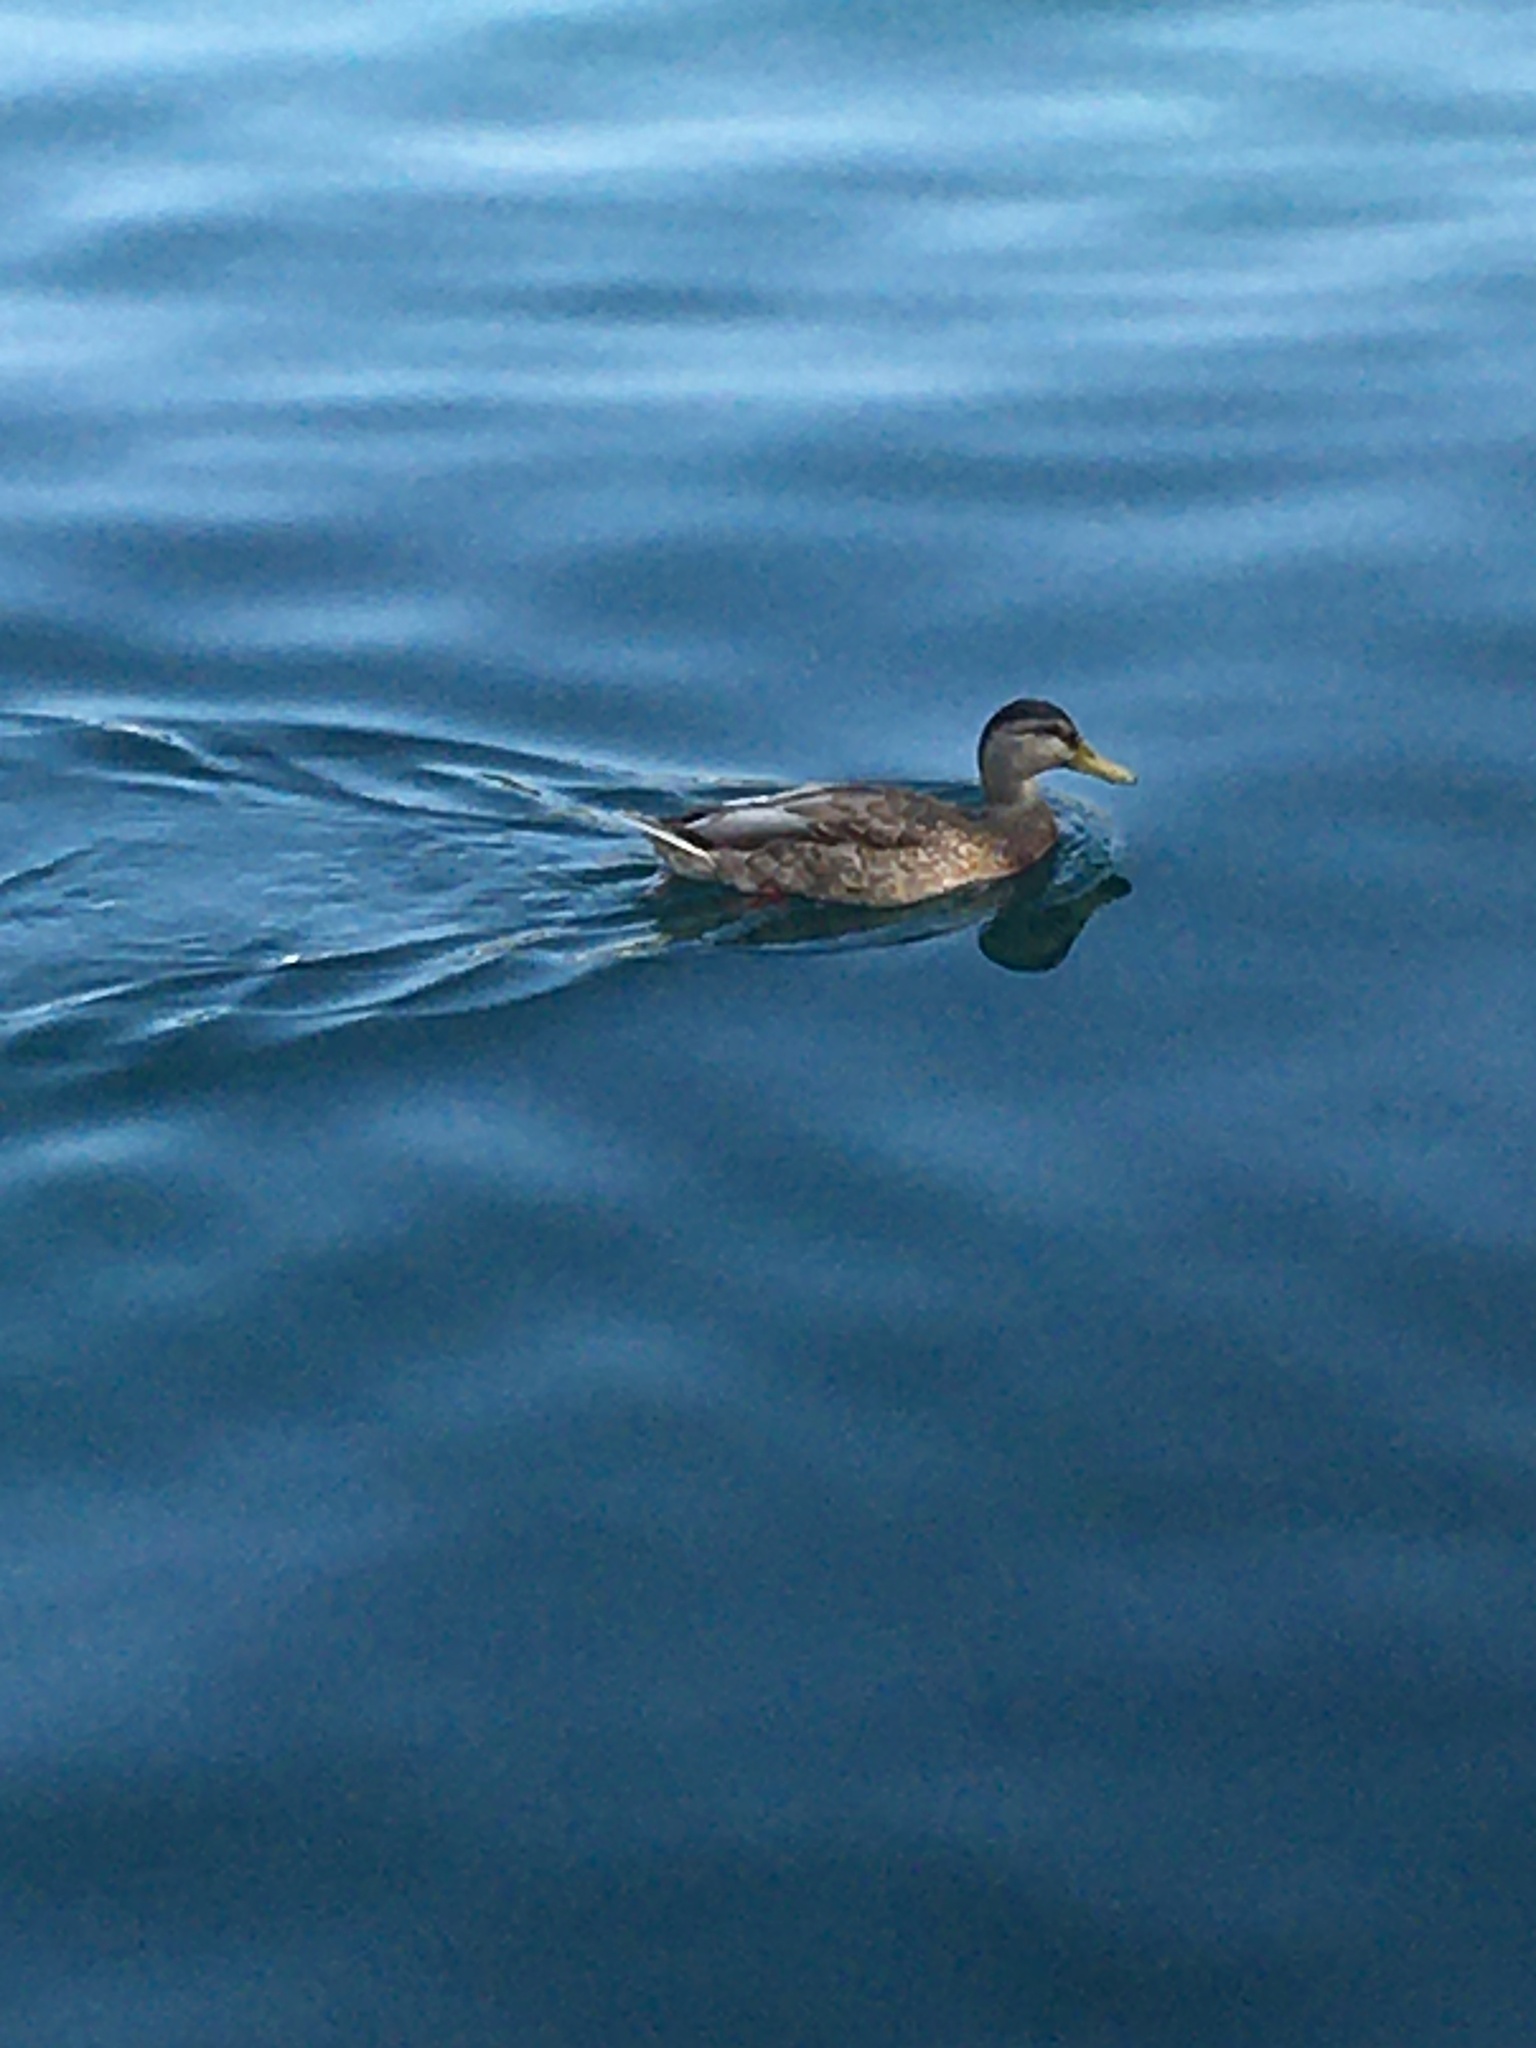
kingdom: Animalia
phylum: Chordata
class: Aves
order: Anseriformes
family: Anatidae
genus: Anas
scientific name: Anas platyrhynchos
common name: Mallard
